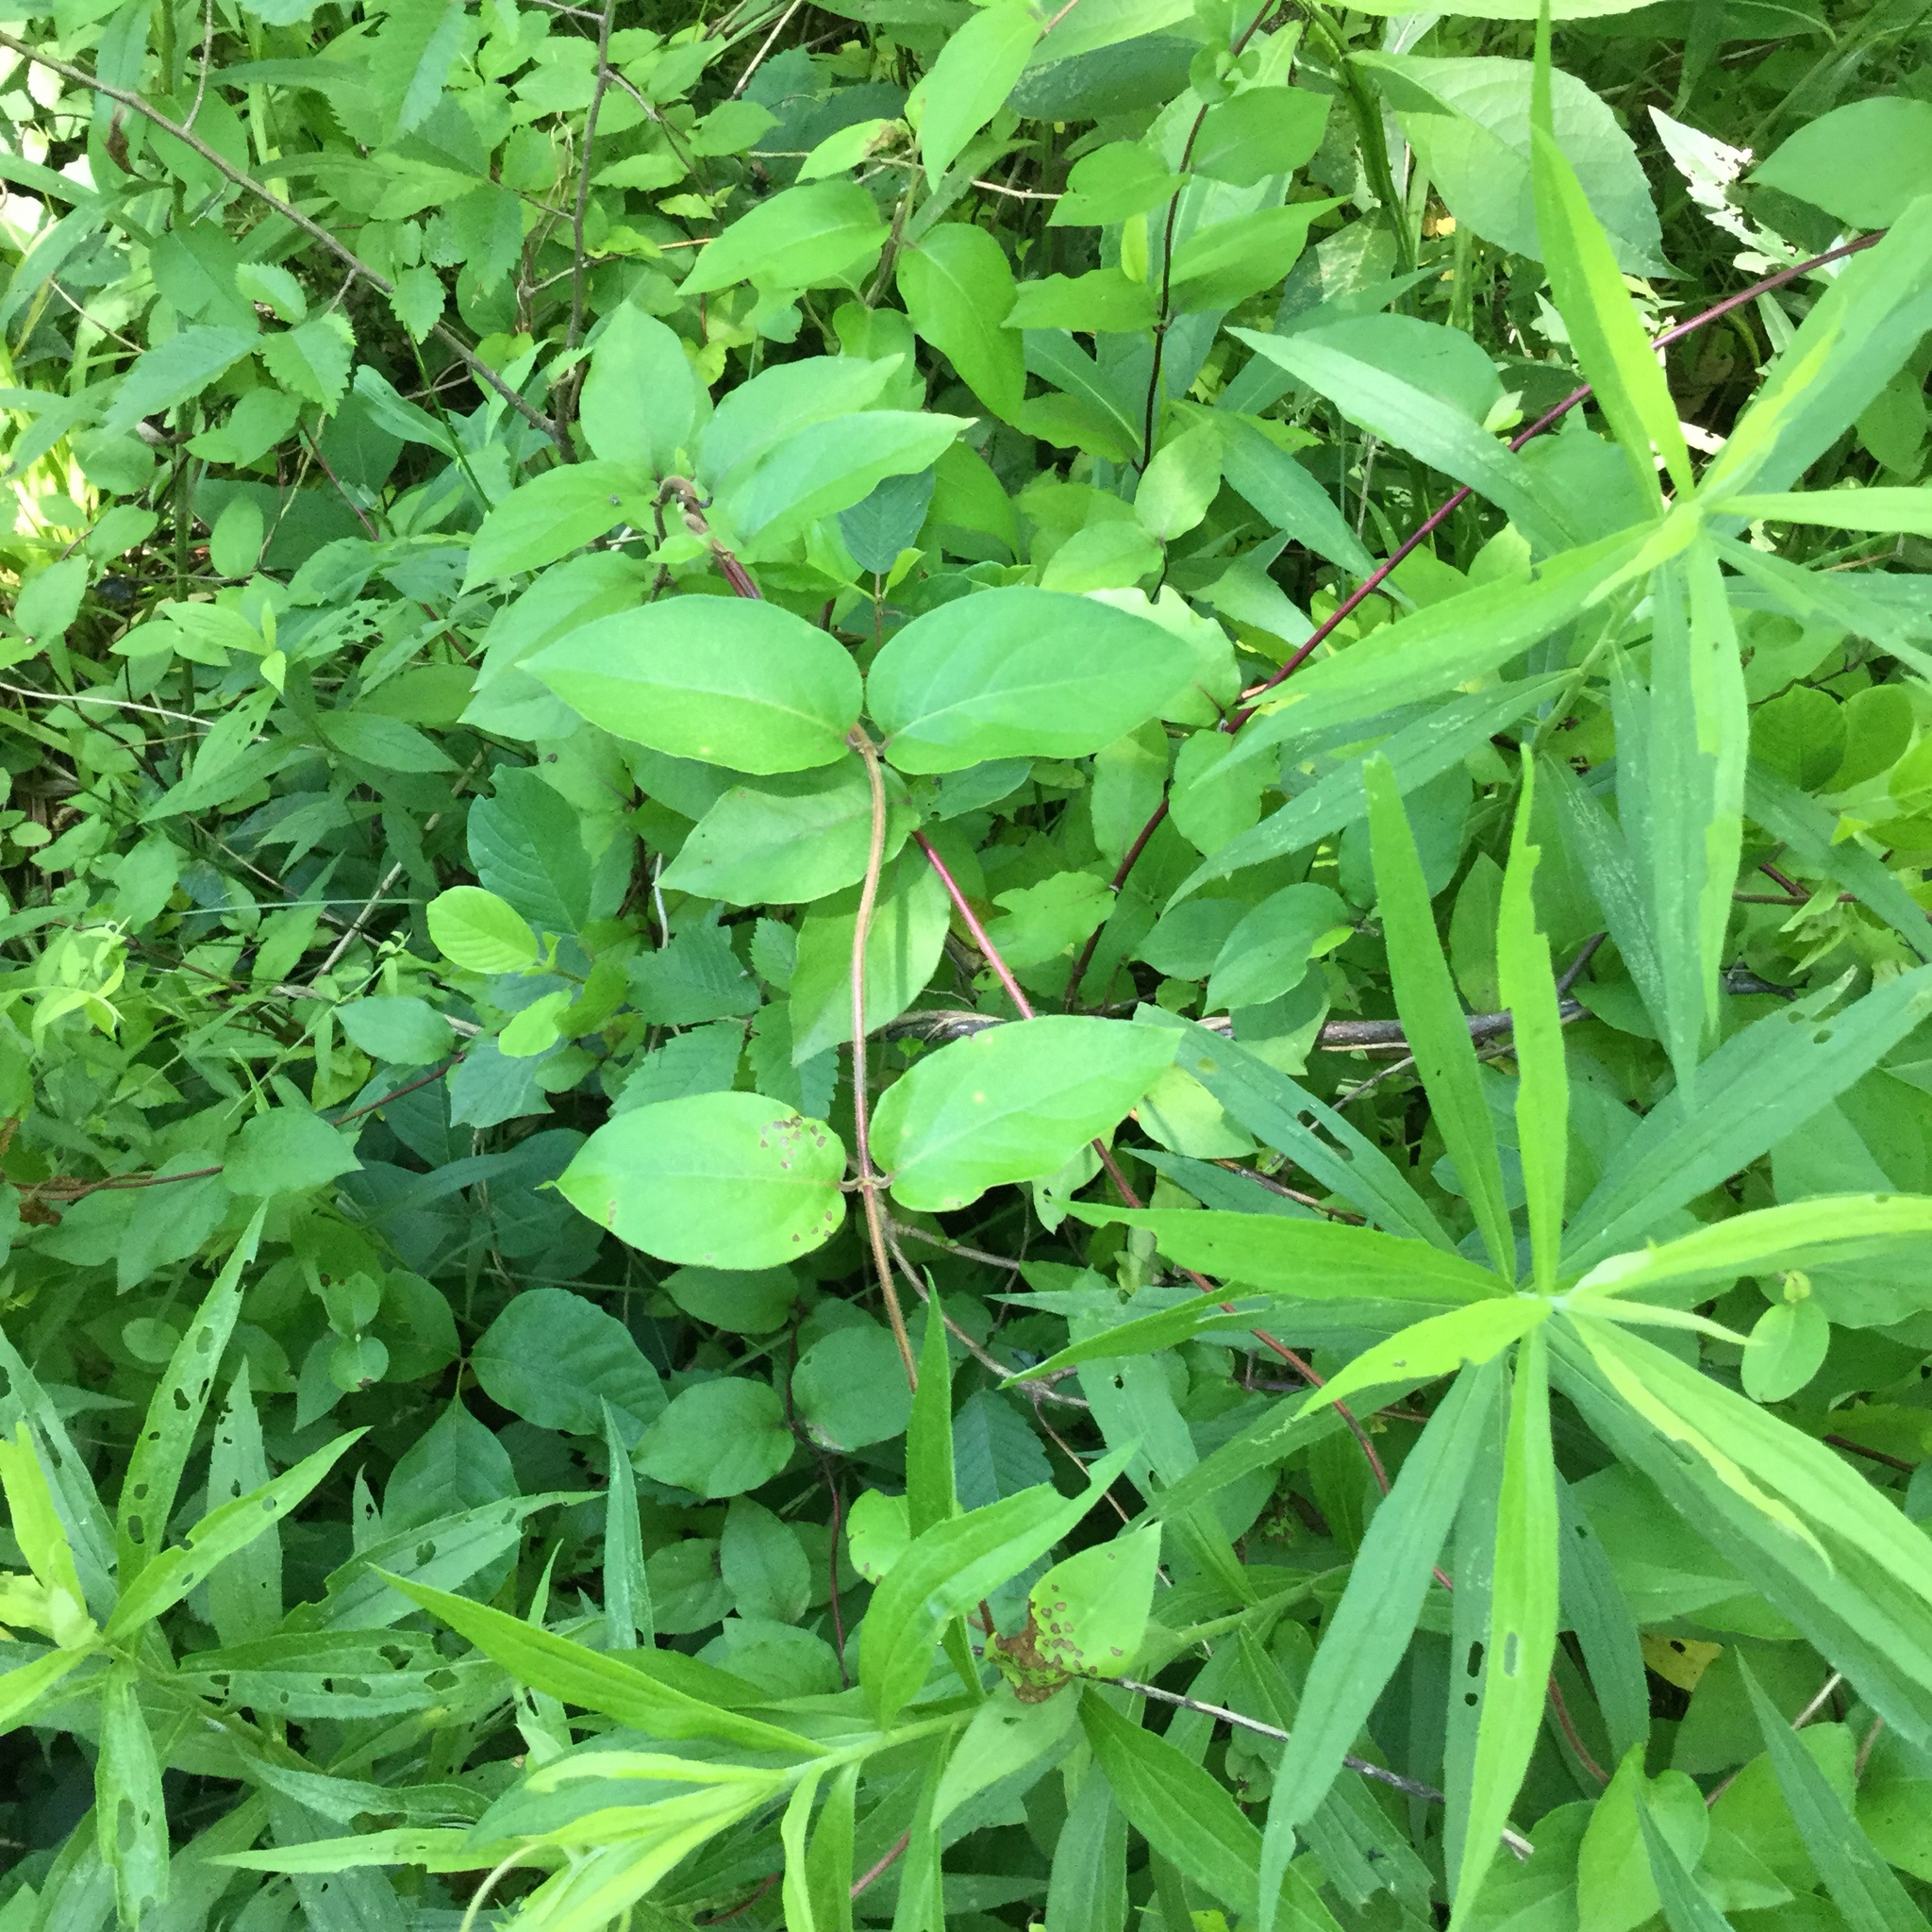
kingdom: Plantae
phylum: Tracheophyta
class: Magnoliopsida
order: Dipsacales
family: Caprifoliaceae
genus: Lonicera
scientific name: Lonicera japonica
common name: Japanese honeysuckle
